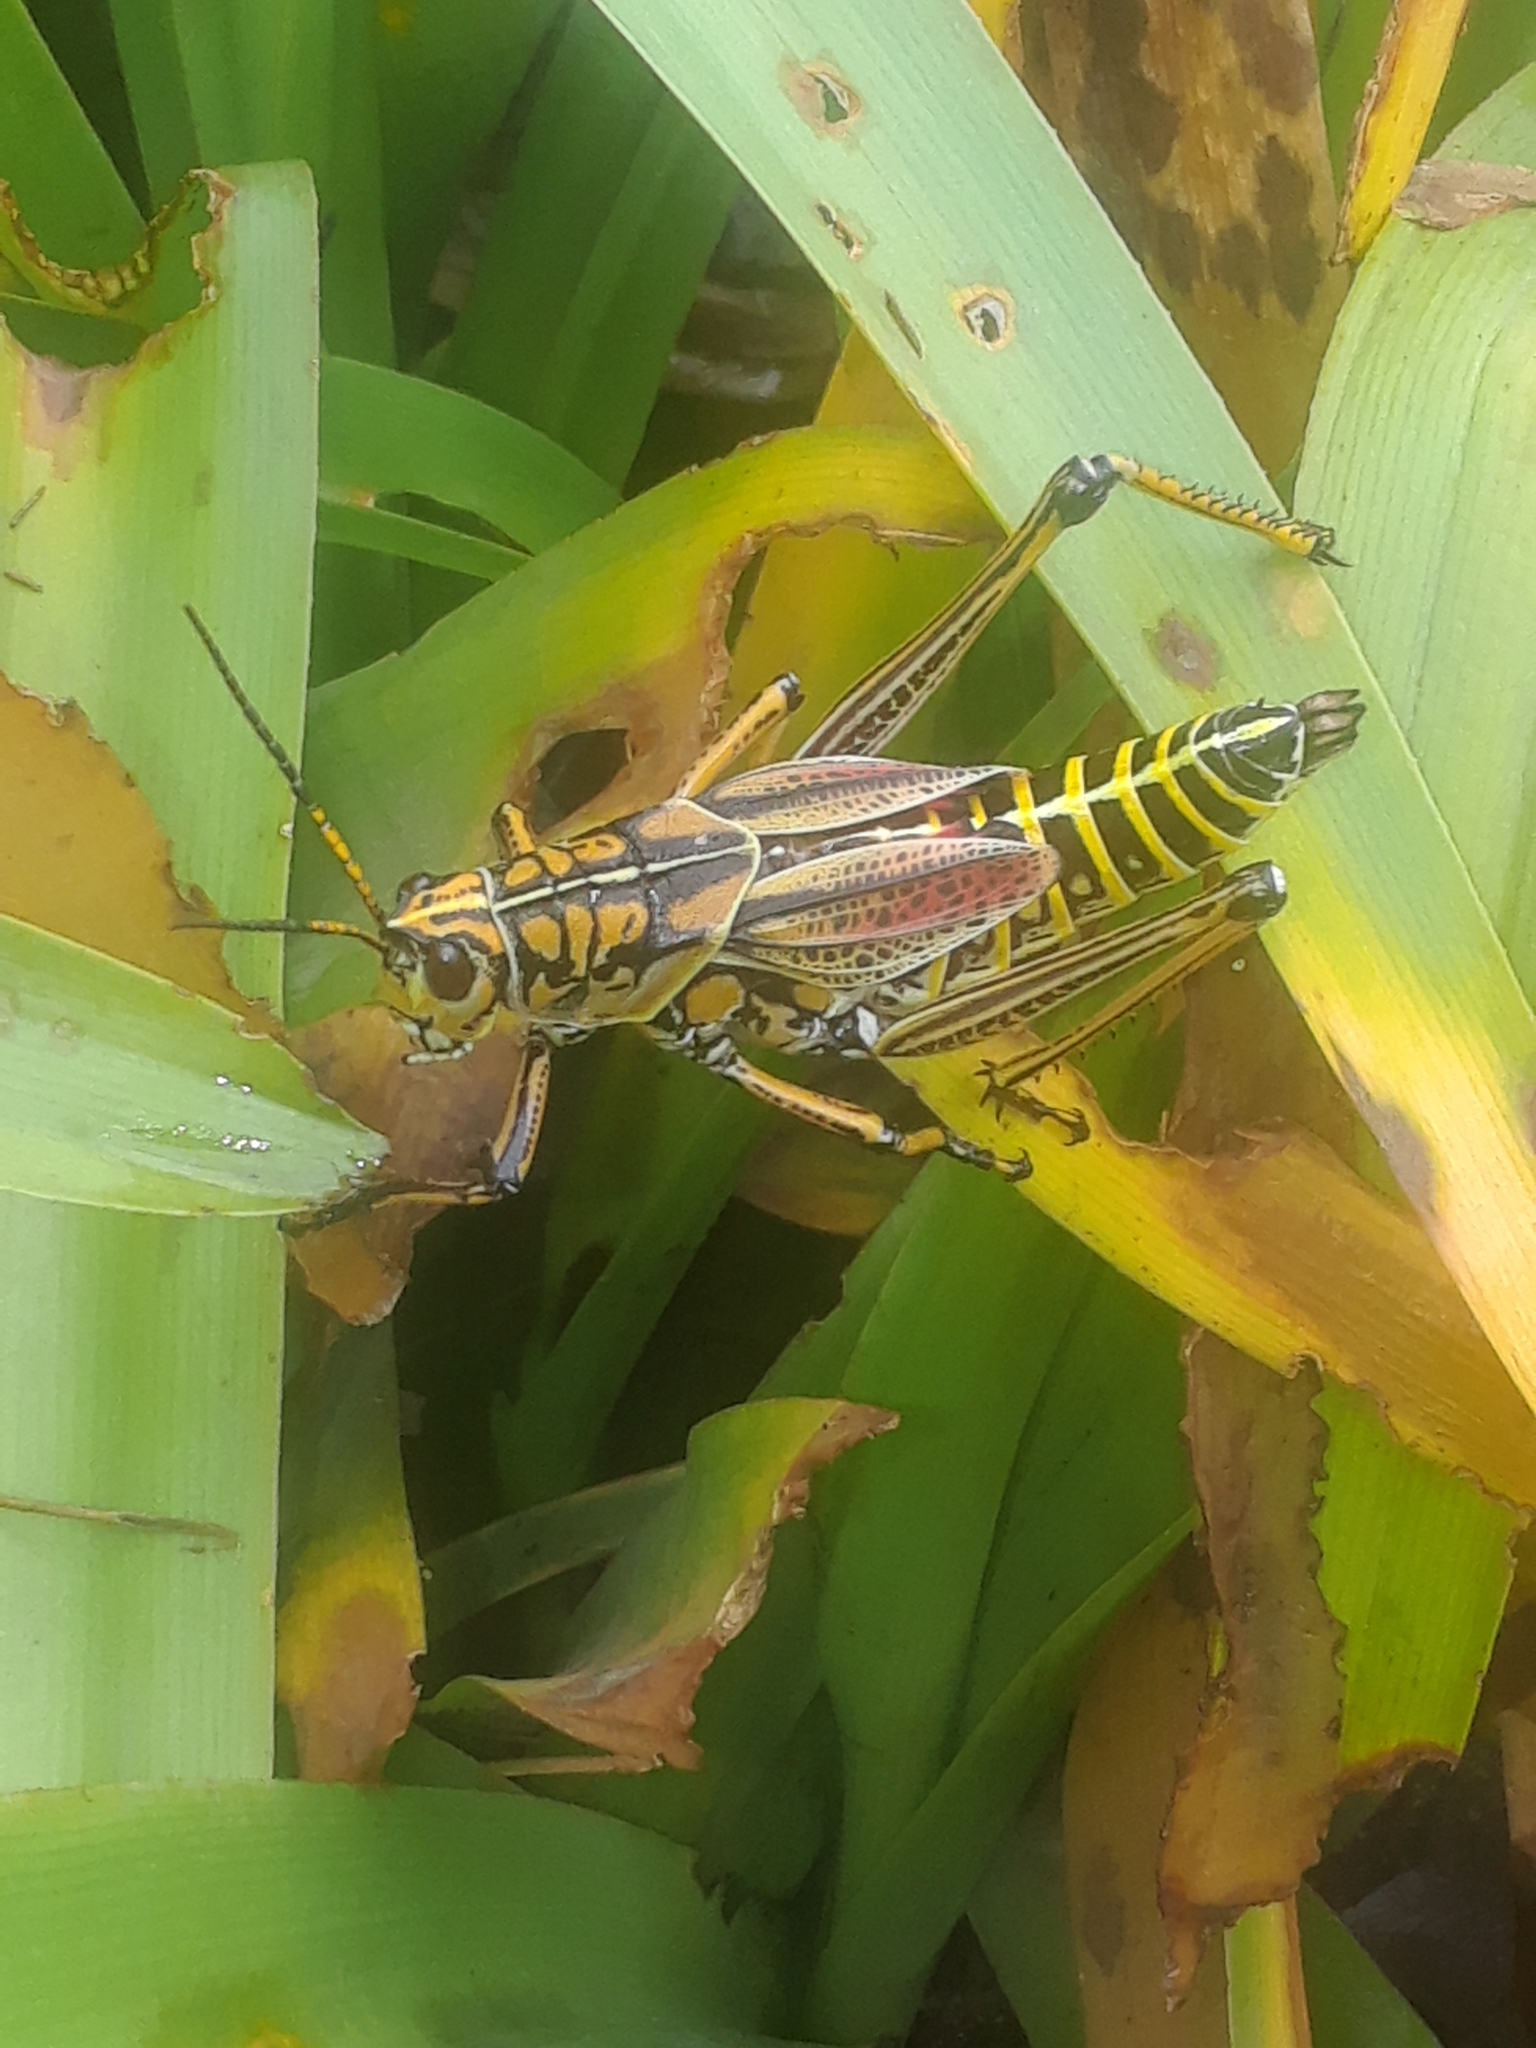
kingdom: Animalia
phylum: Arthropoda
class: Insecta
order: Orthoptera
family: Romaleidae
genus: Romalea
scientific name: Romalea microptera
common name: Eastern lubber grasshopper
